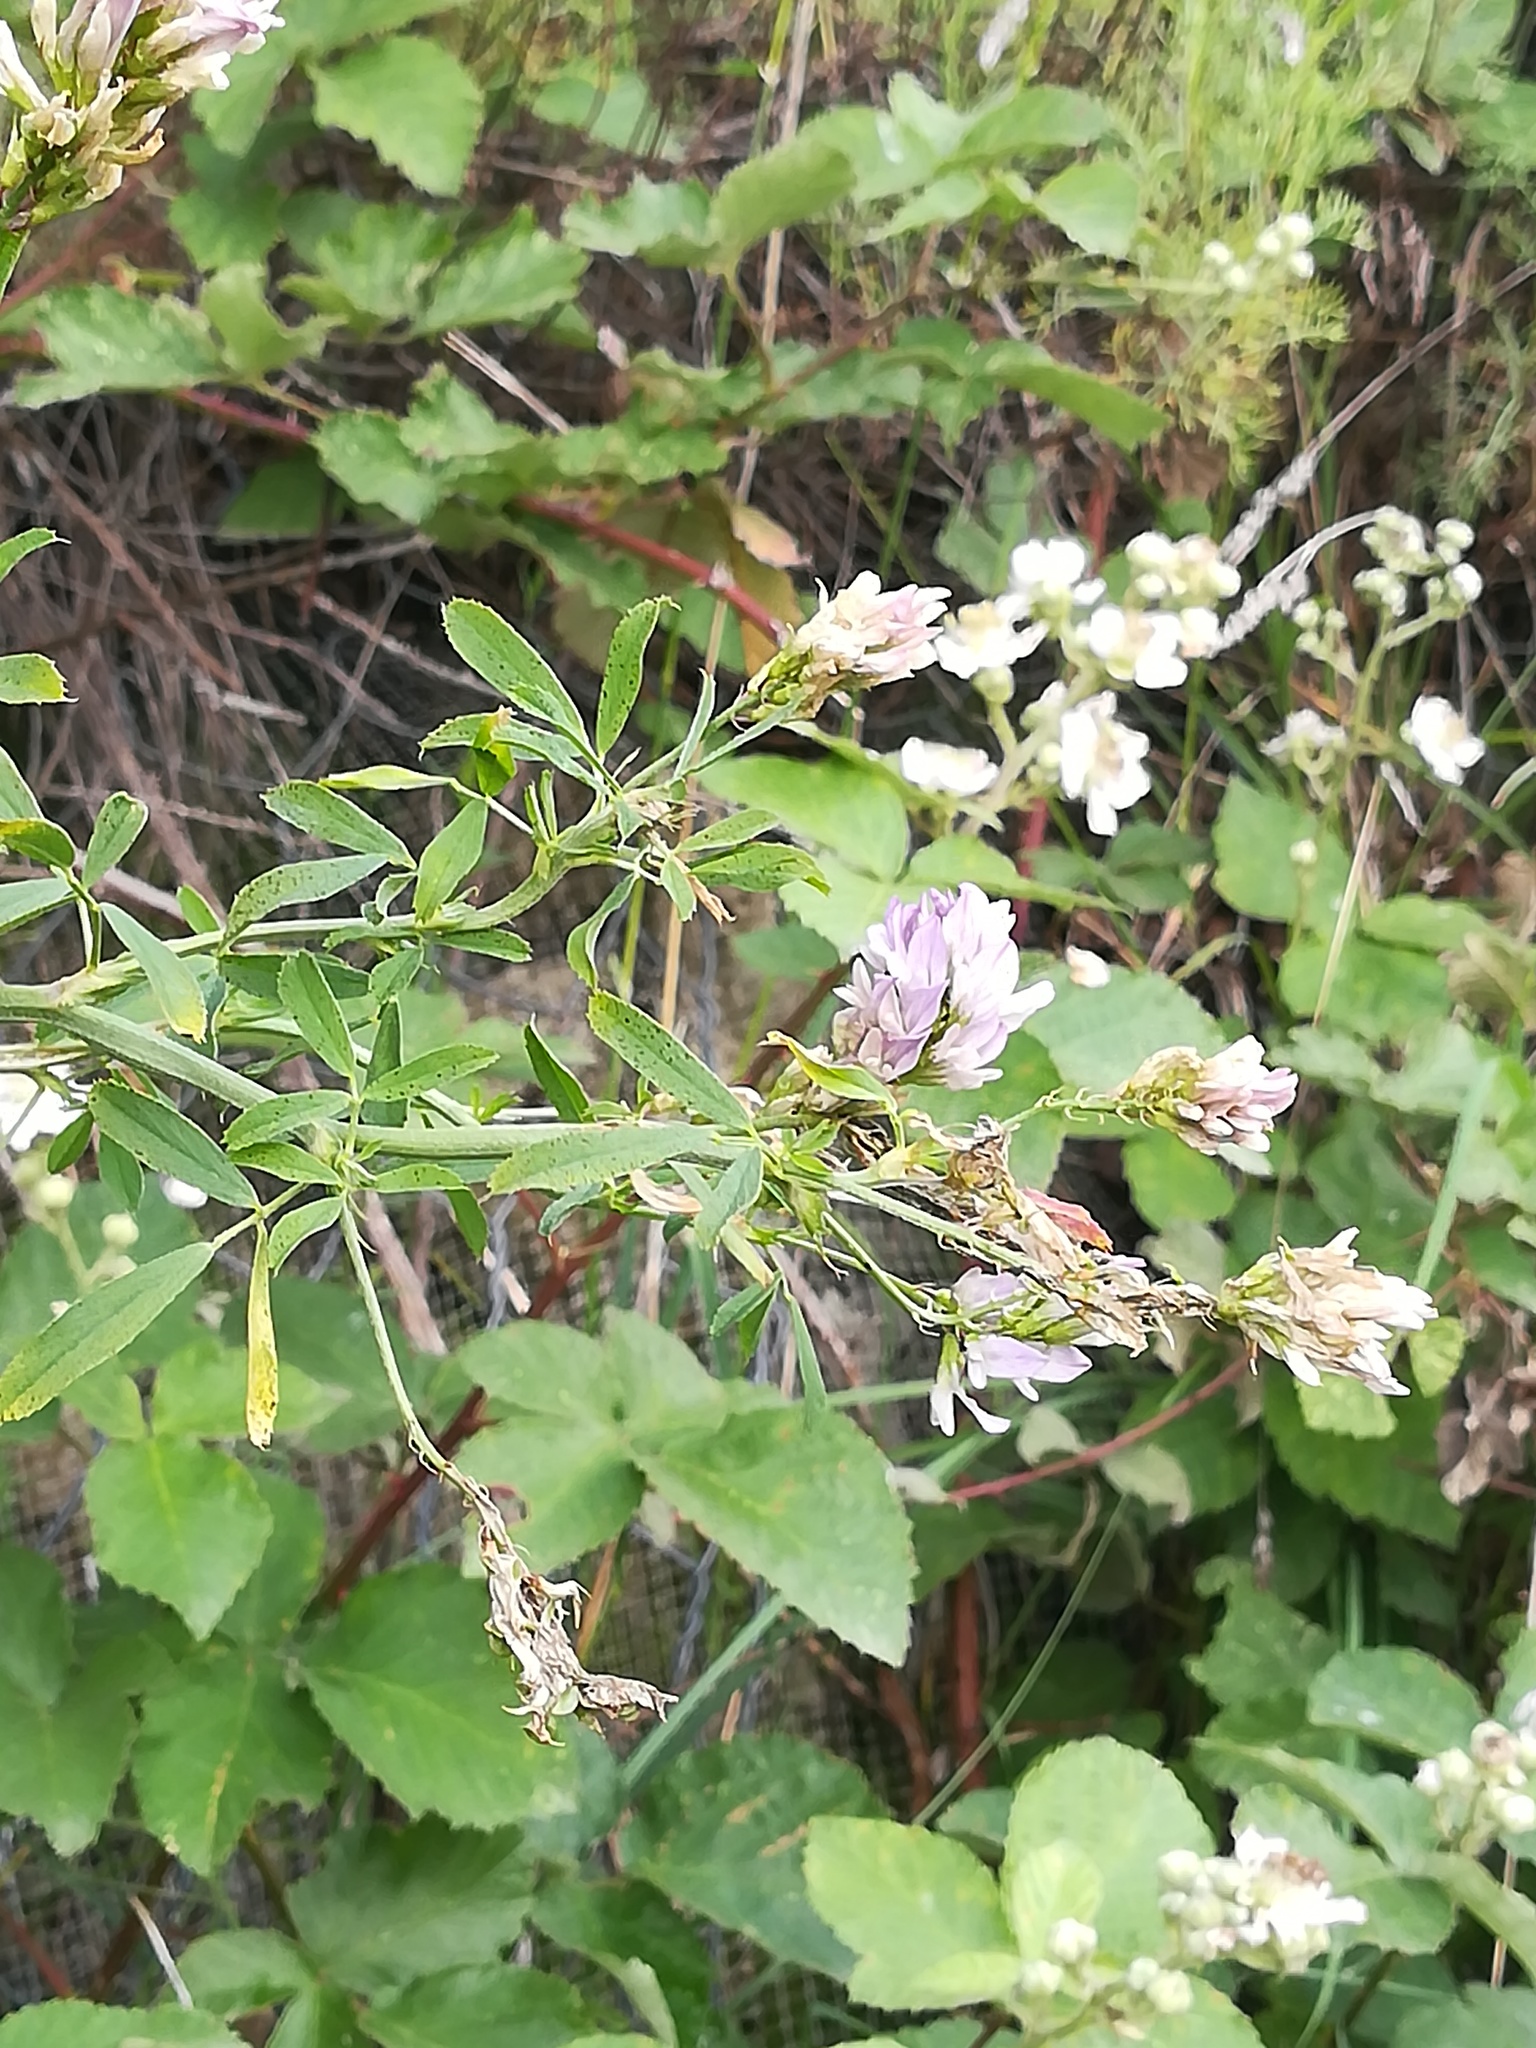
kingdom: Plantae
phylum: Tracheophyta
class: Magnoliopsida
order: Fabales
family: Fabaceae
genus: Medicago
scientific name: Medicago sativa
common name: Alfalfa
